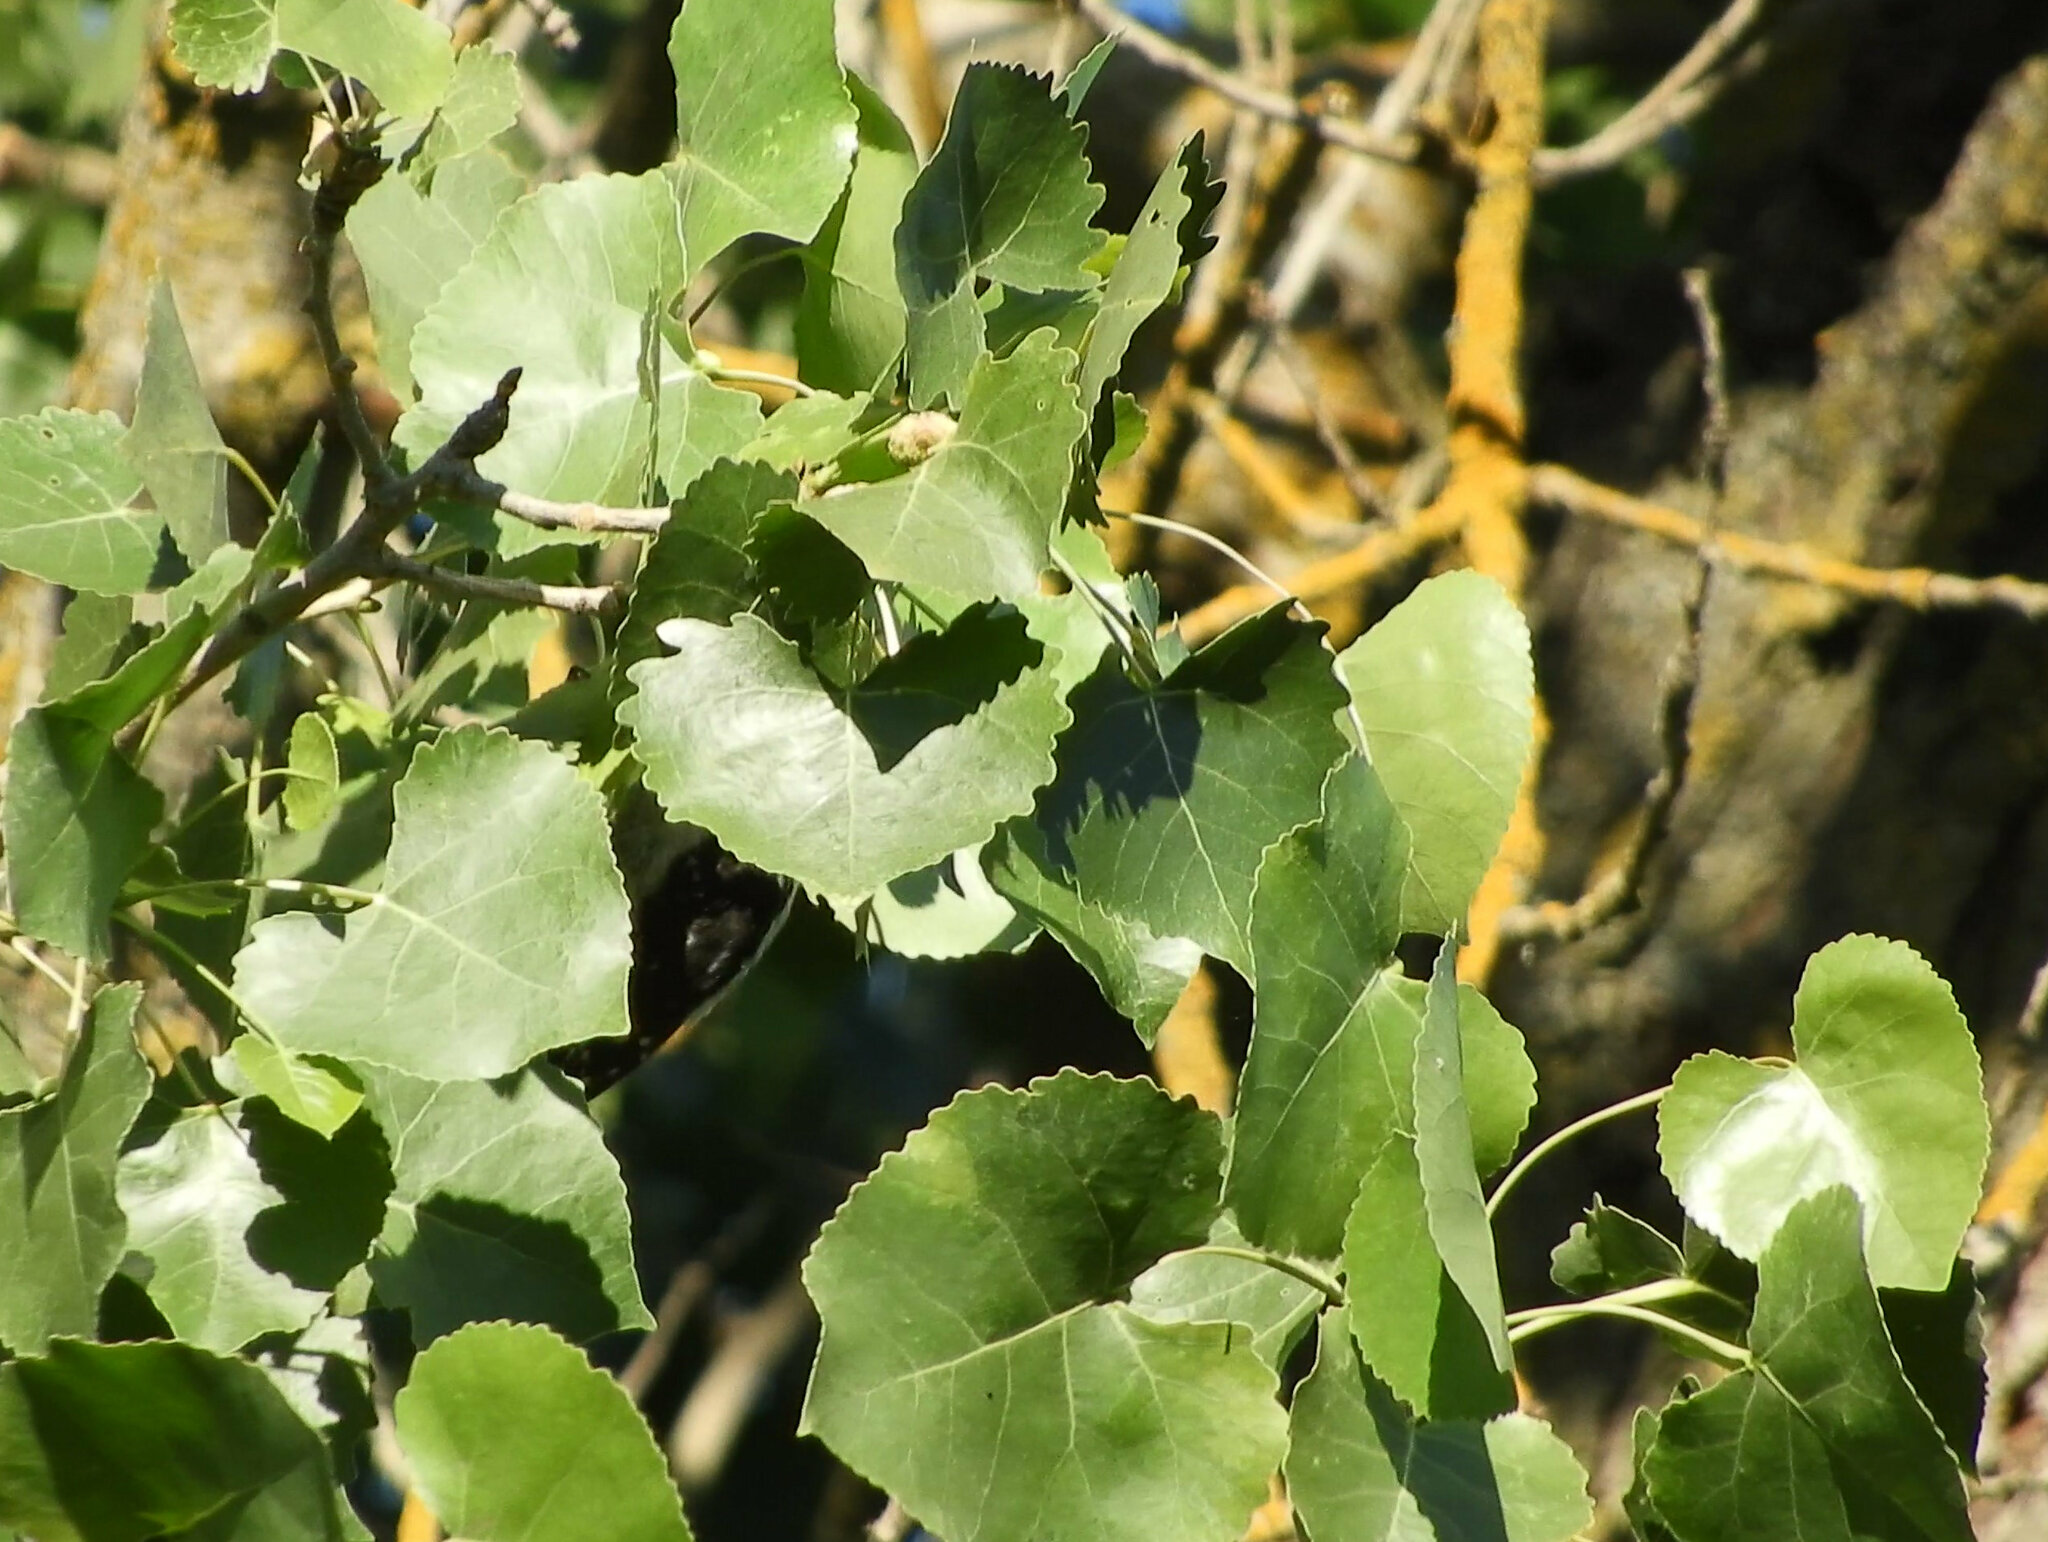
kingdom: Plantae
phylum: Tracheophyta
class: Magnoliopsida
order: Malpighiales
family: Salicaceae
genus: Populus
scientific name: Populus fremontii
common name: Fremont's cottonwood
